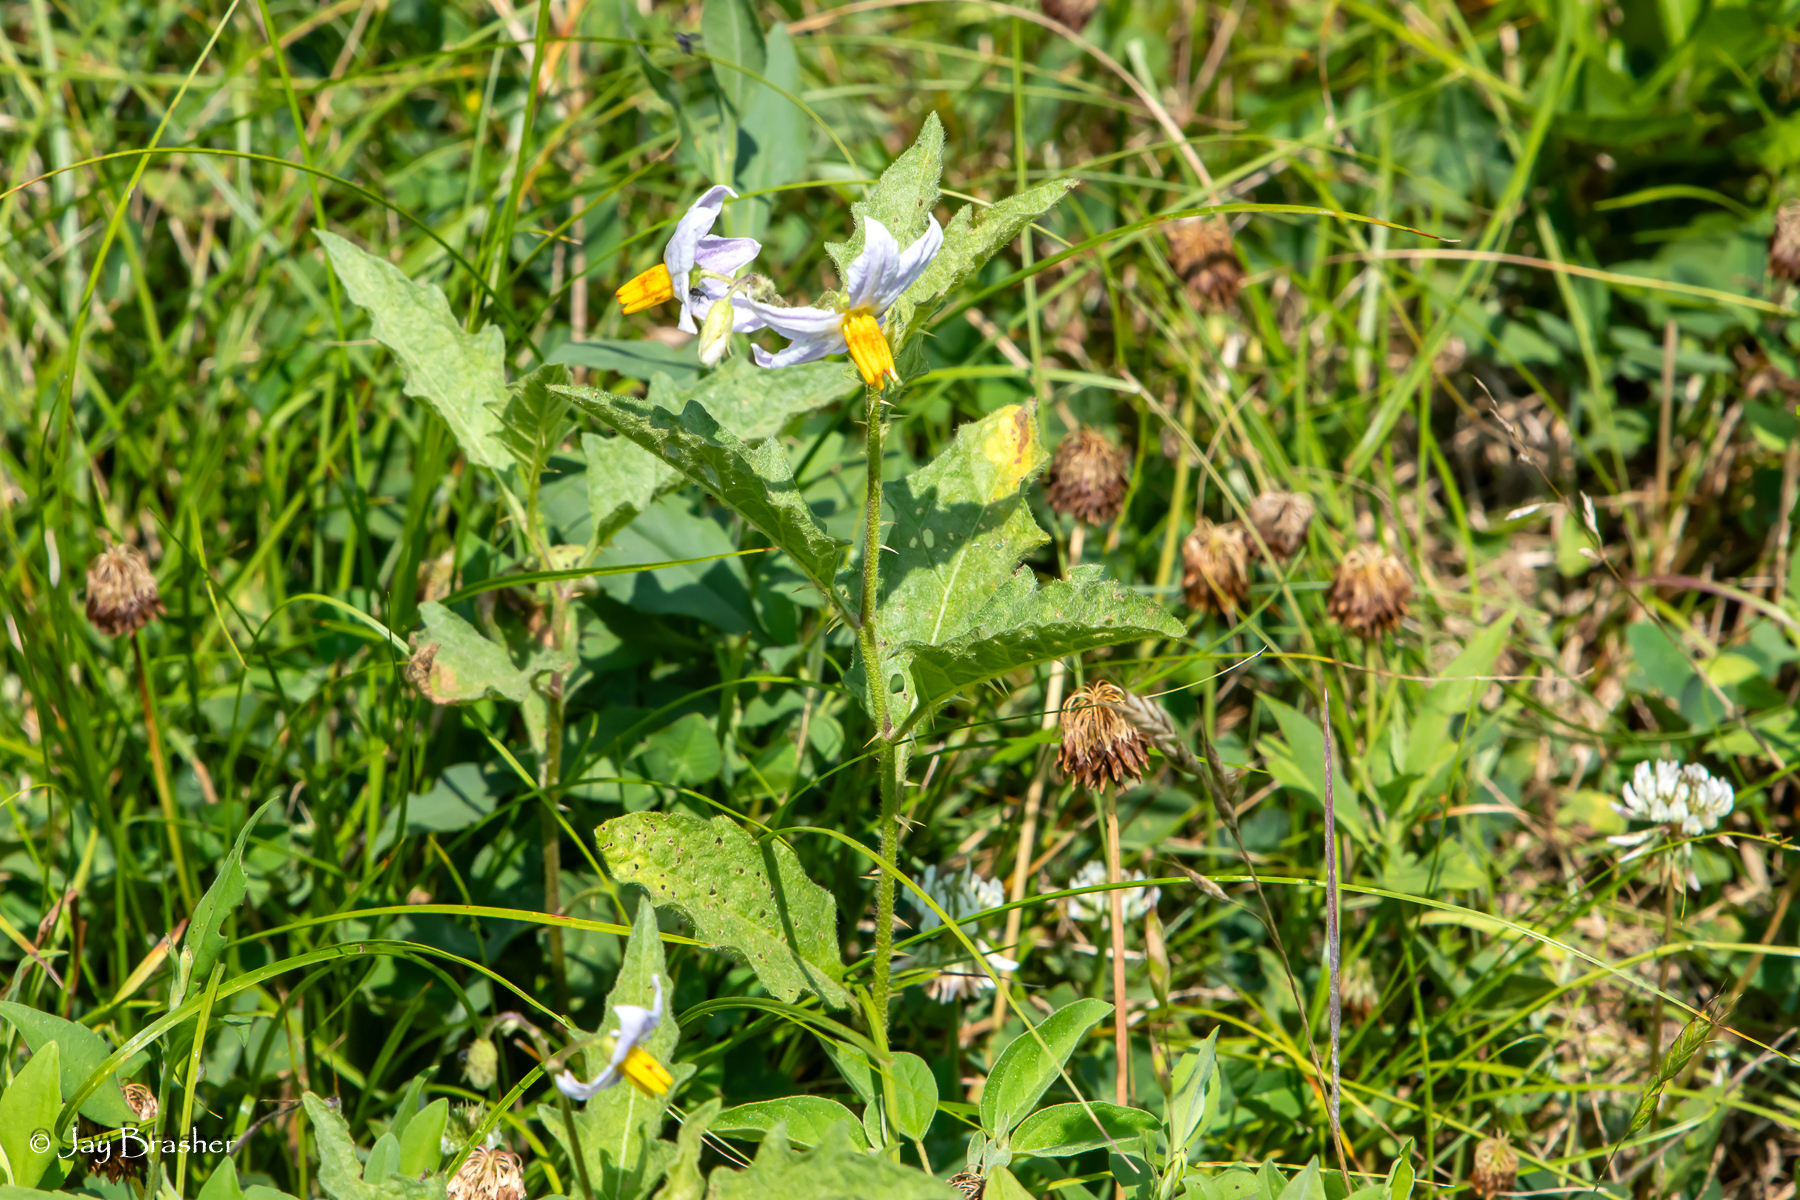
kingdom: Plantae
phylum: Tracheophyta
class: Magnoliopsida
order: Solanales
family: Solanaceae
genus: Solanum
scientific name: Solanum carolinense
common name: Horse-nettle
